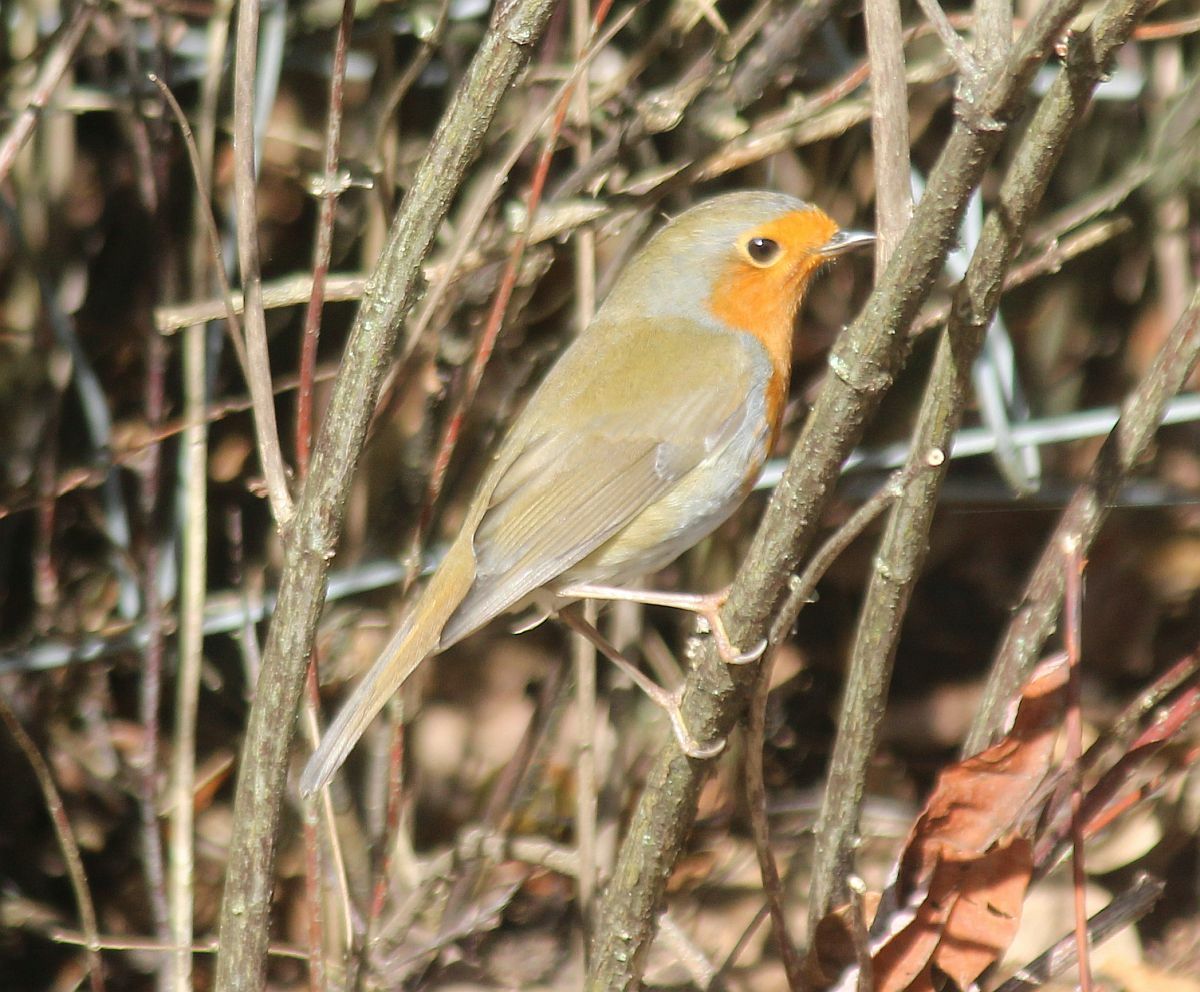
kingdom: Animalia
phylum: Chordata
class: Aves
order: Passeriformes
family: Muscicapidae
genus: Erithacus
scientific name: Erithacus rubecula
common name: European robin
